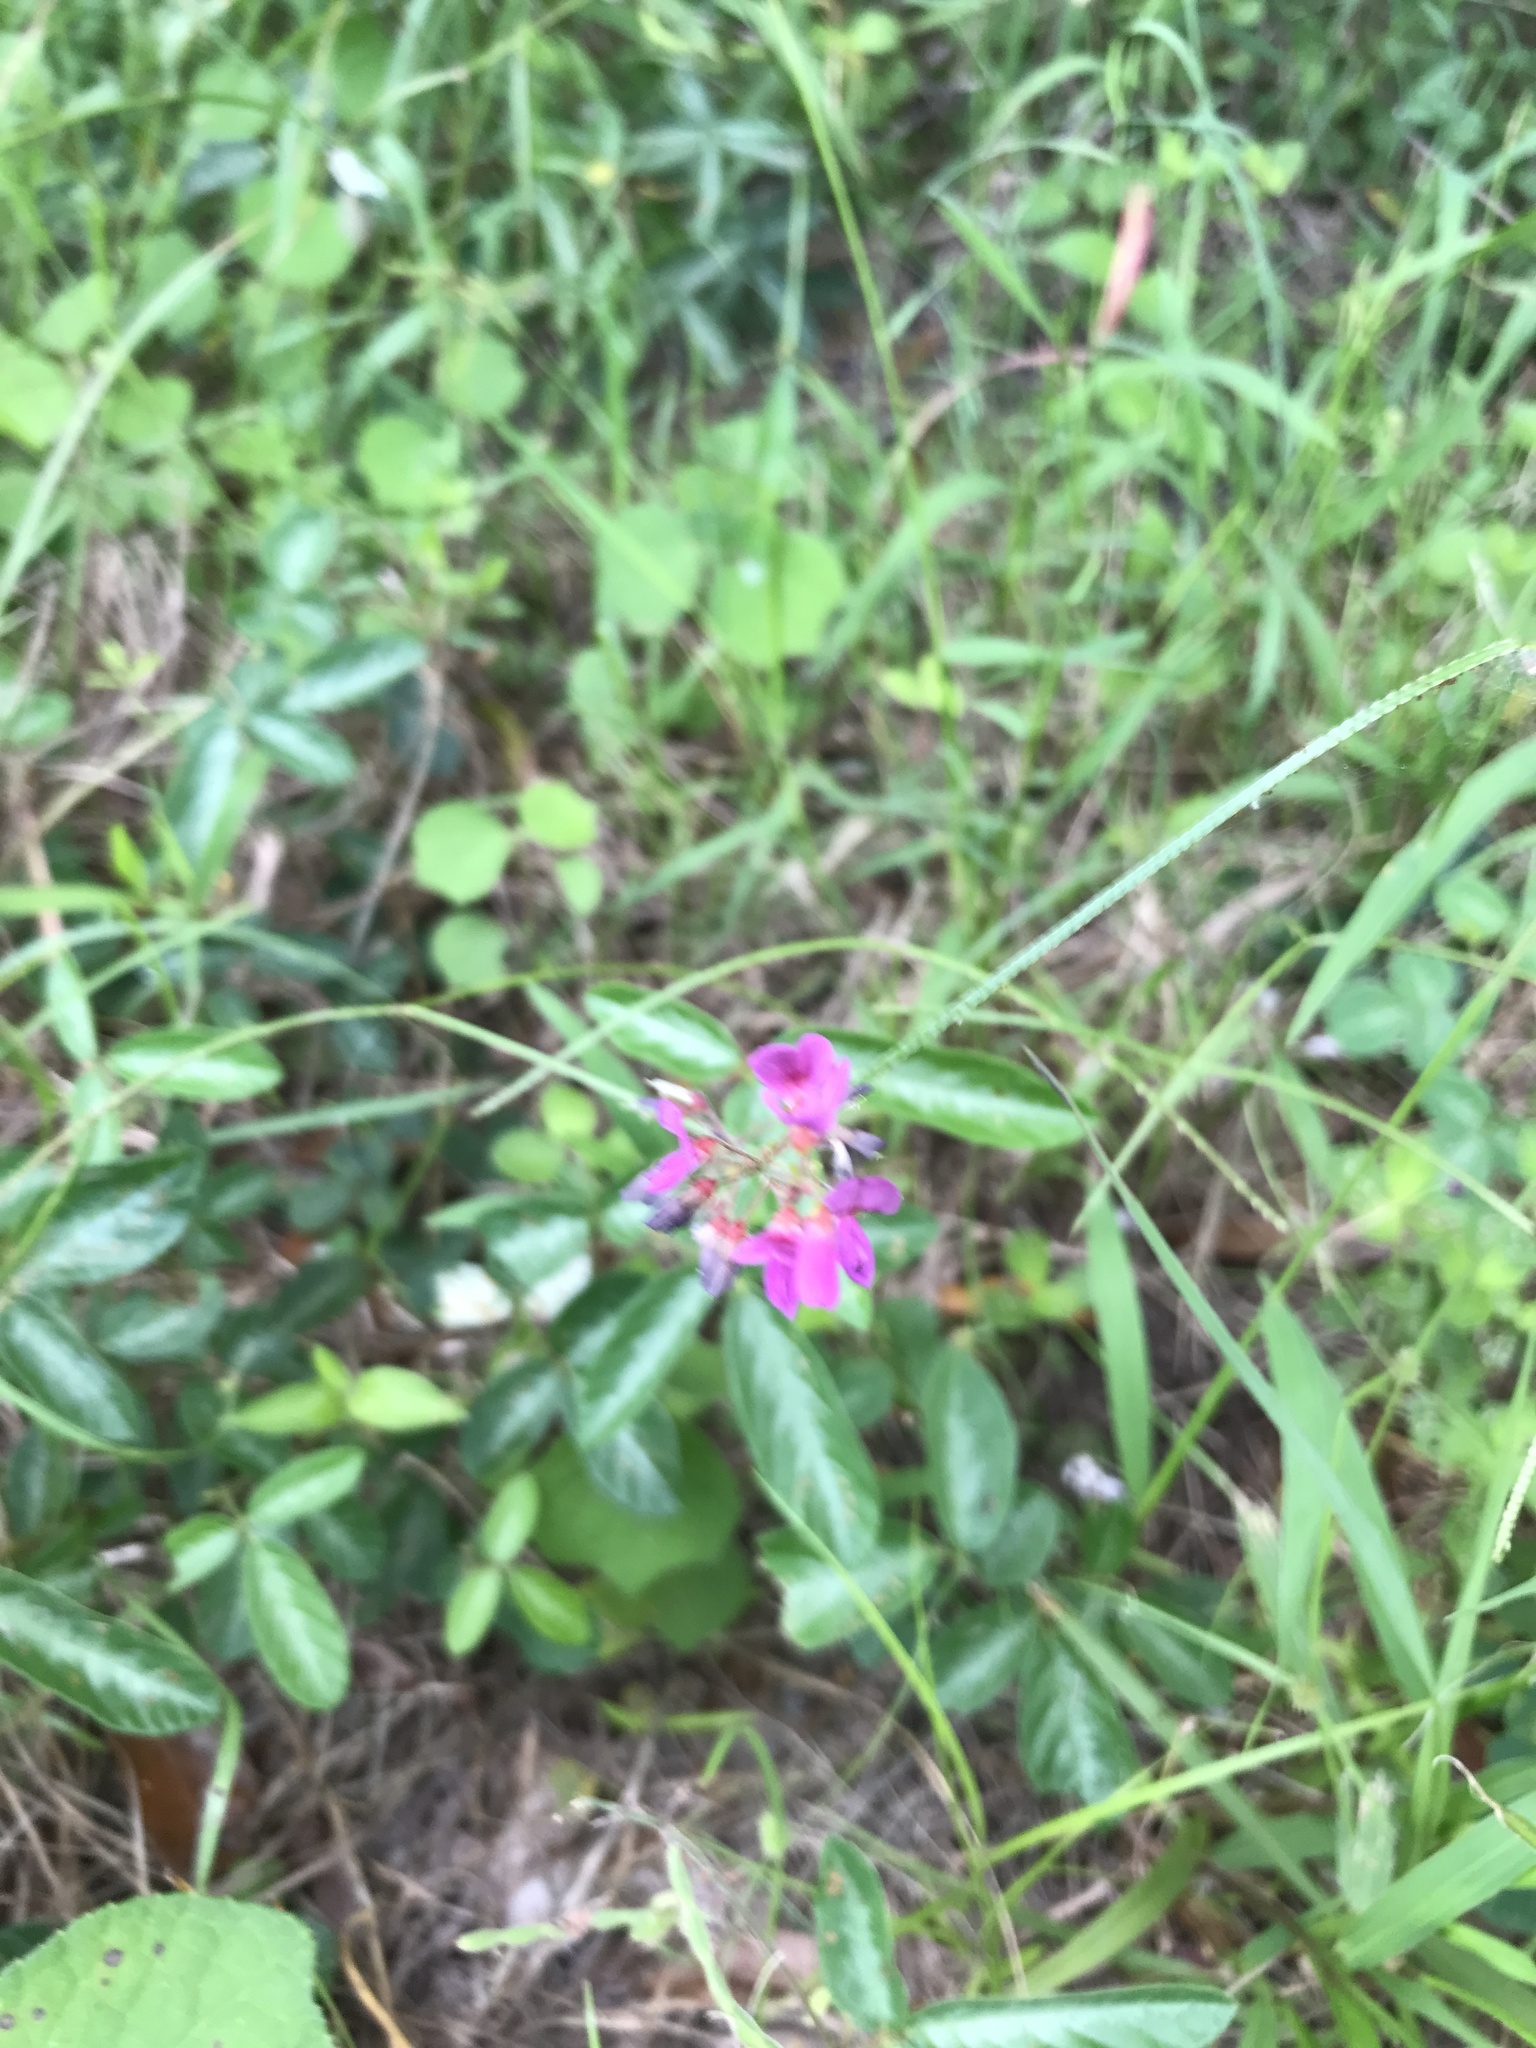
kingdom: Plantae
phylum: Tracheophyta
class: Magnoliopsida
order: Fabales
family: Fabaceae
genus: Desmodium
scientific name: Desmodium incanum
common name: Tickclover
